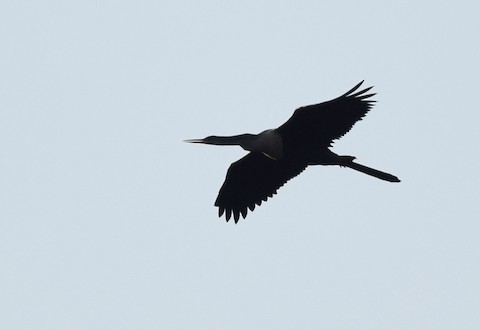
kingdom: Animalia
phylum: Chordata
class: Aves
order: Suliformes
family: Anhingidae
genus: Anhinga
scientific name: Anhinga anhinga
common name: Anhinga
